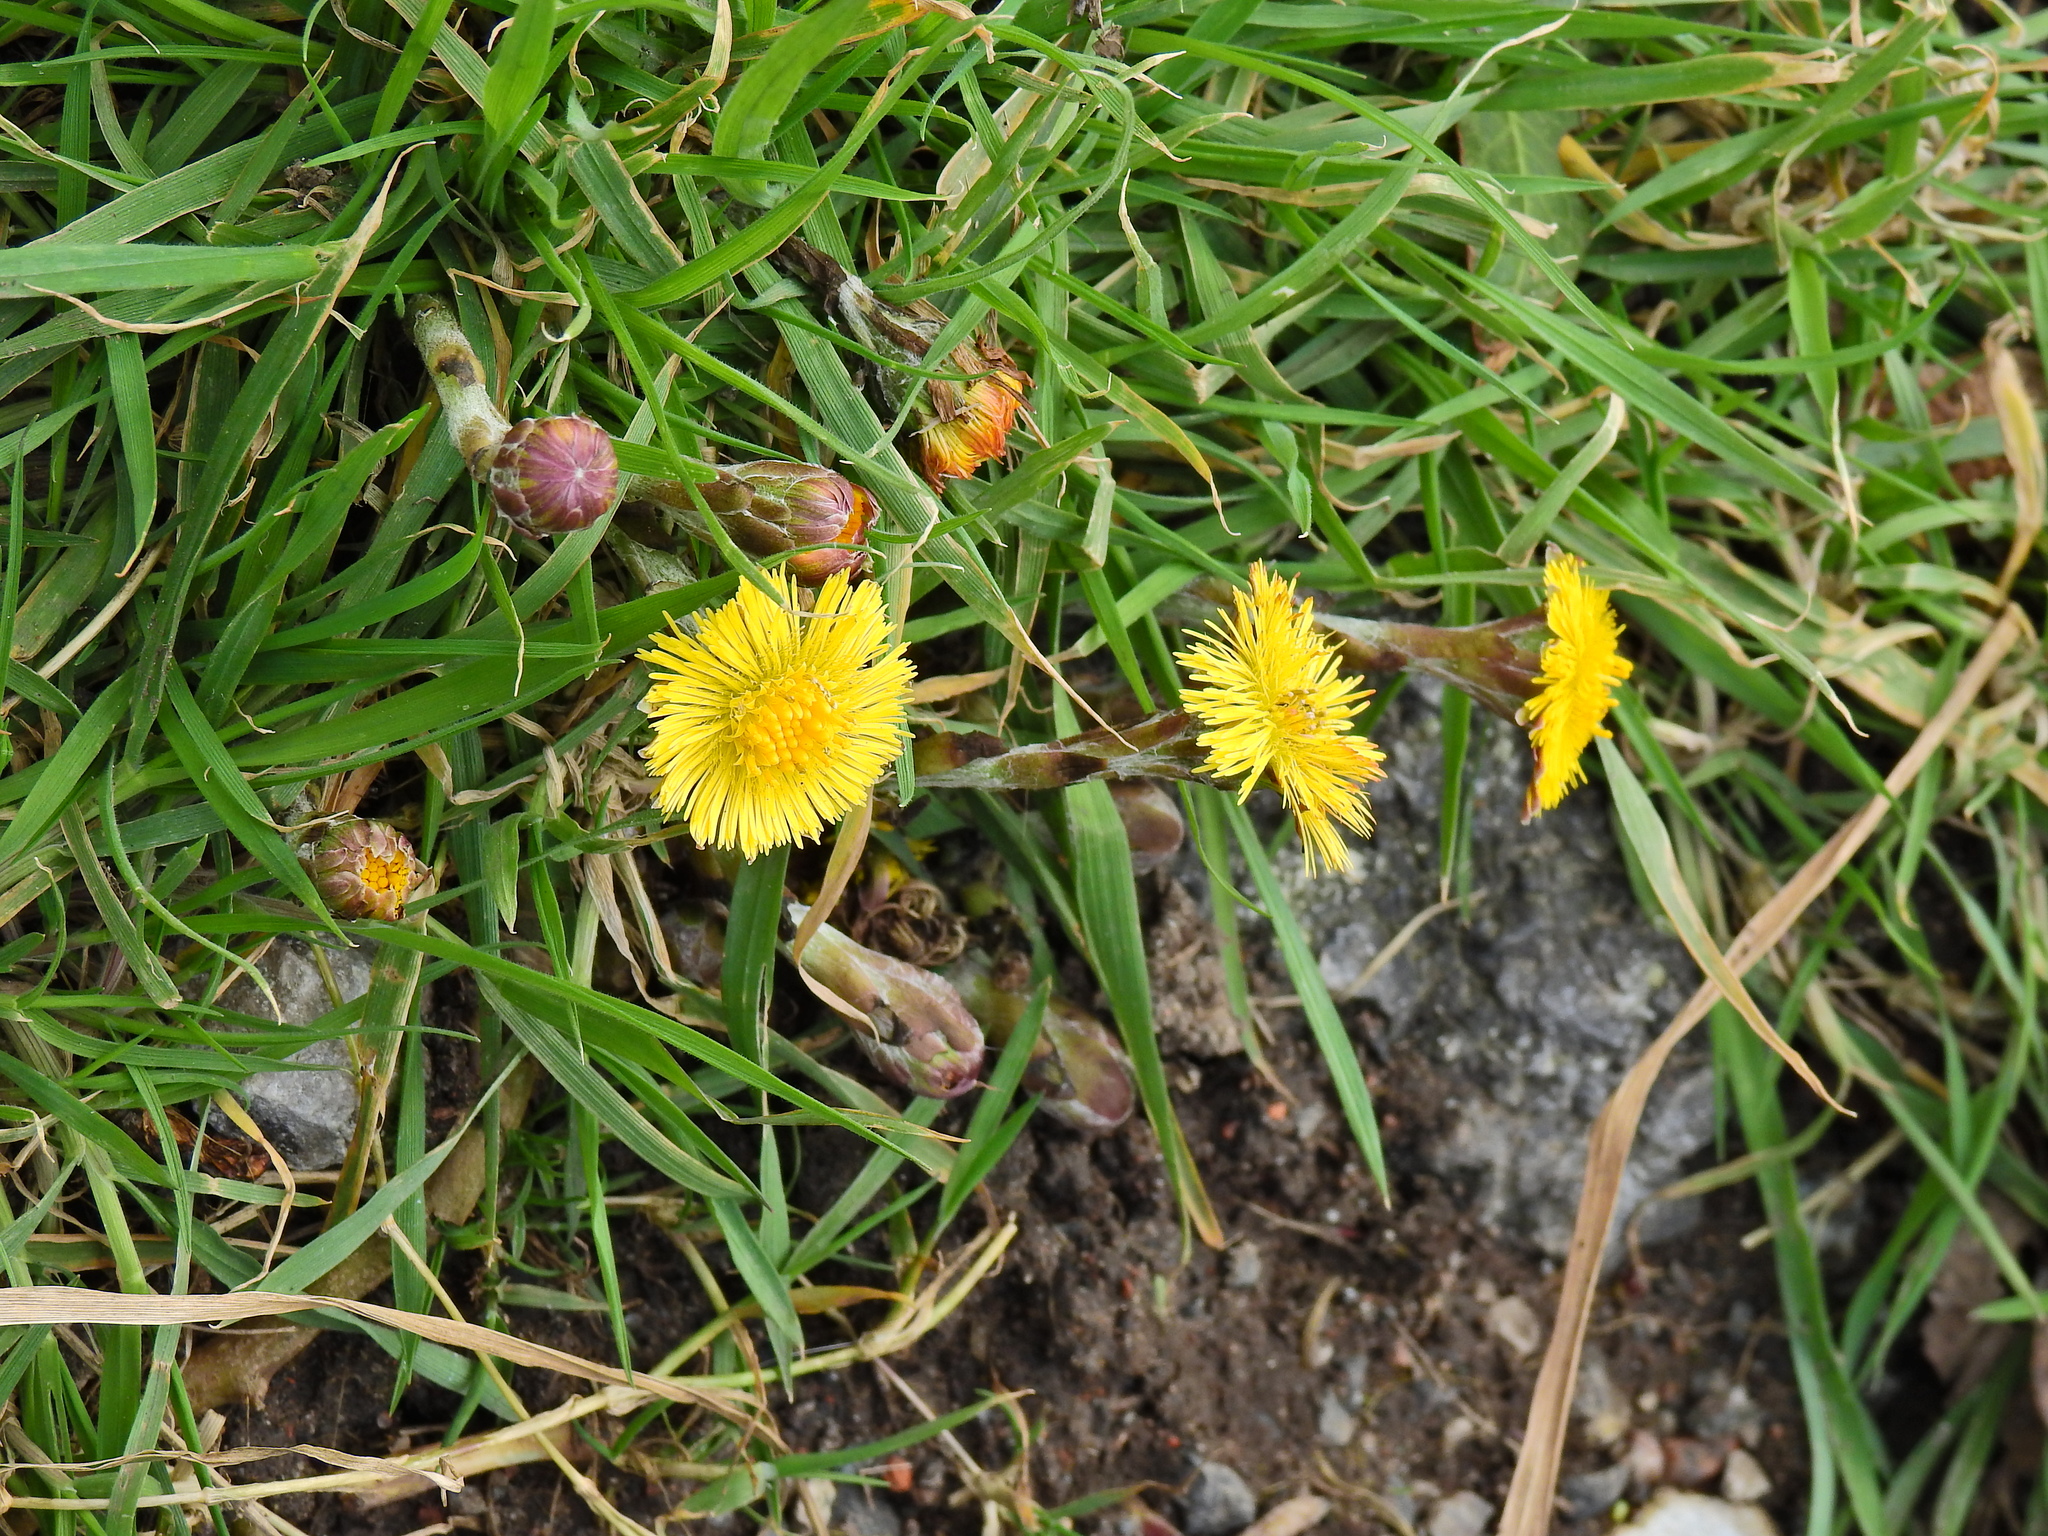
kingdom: Plantae
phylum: Tracheophyta
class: Magnoliopsida
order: Asterales
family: Asteraceae
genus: Tussilago
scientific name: Tussilago farfara
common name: Coltsfoot
